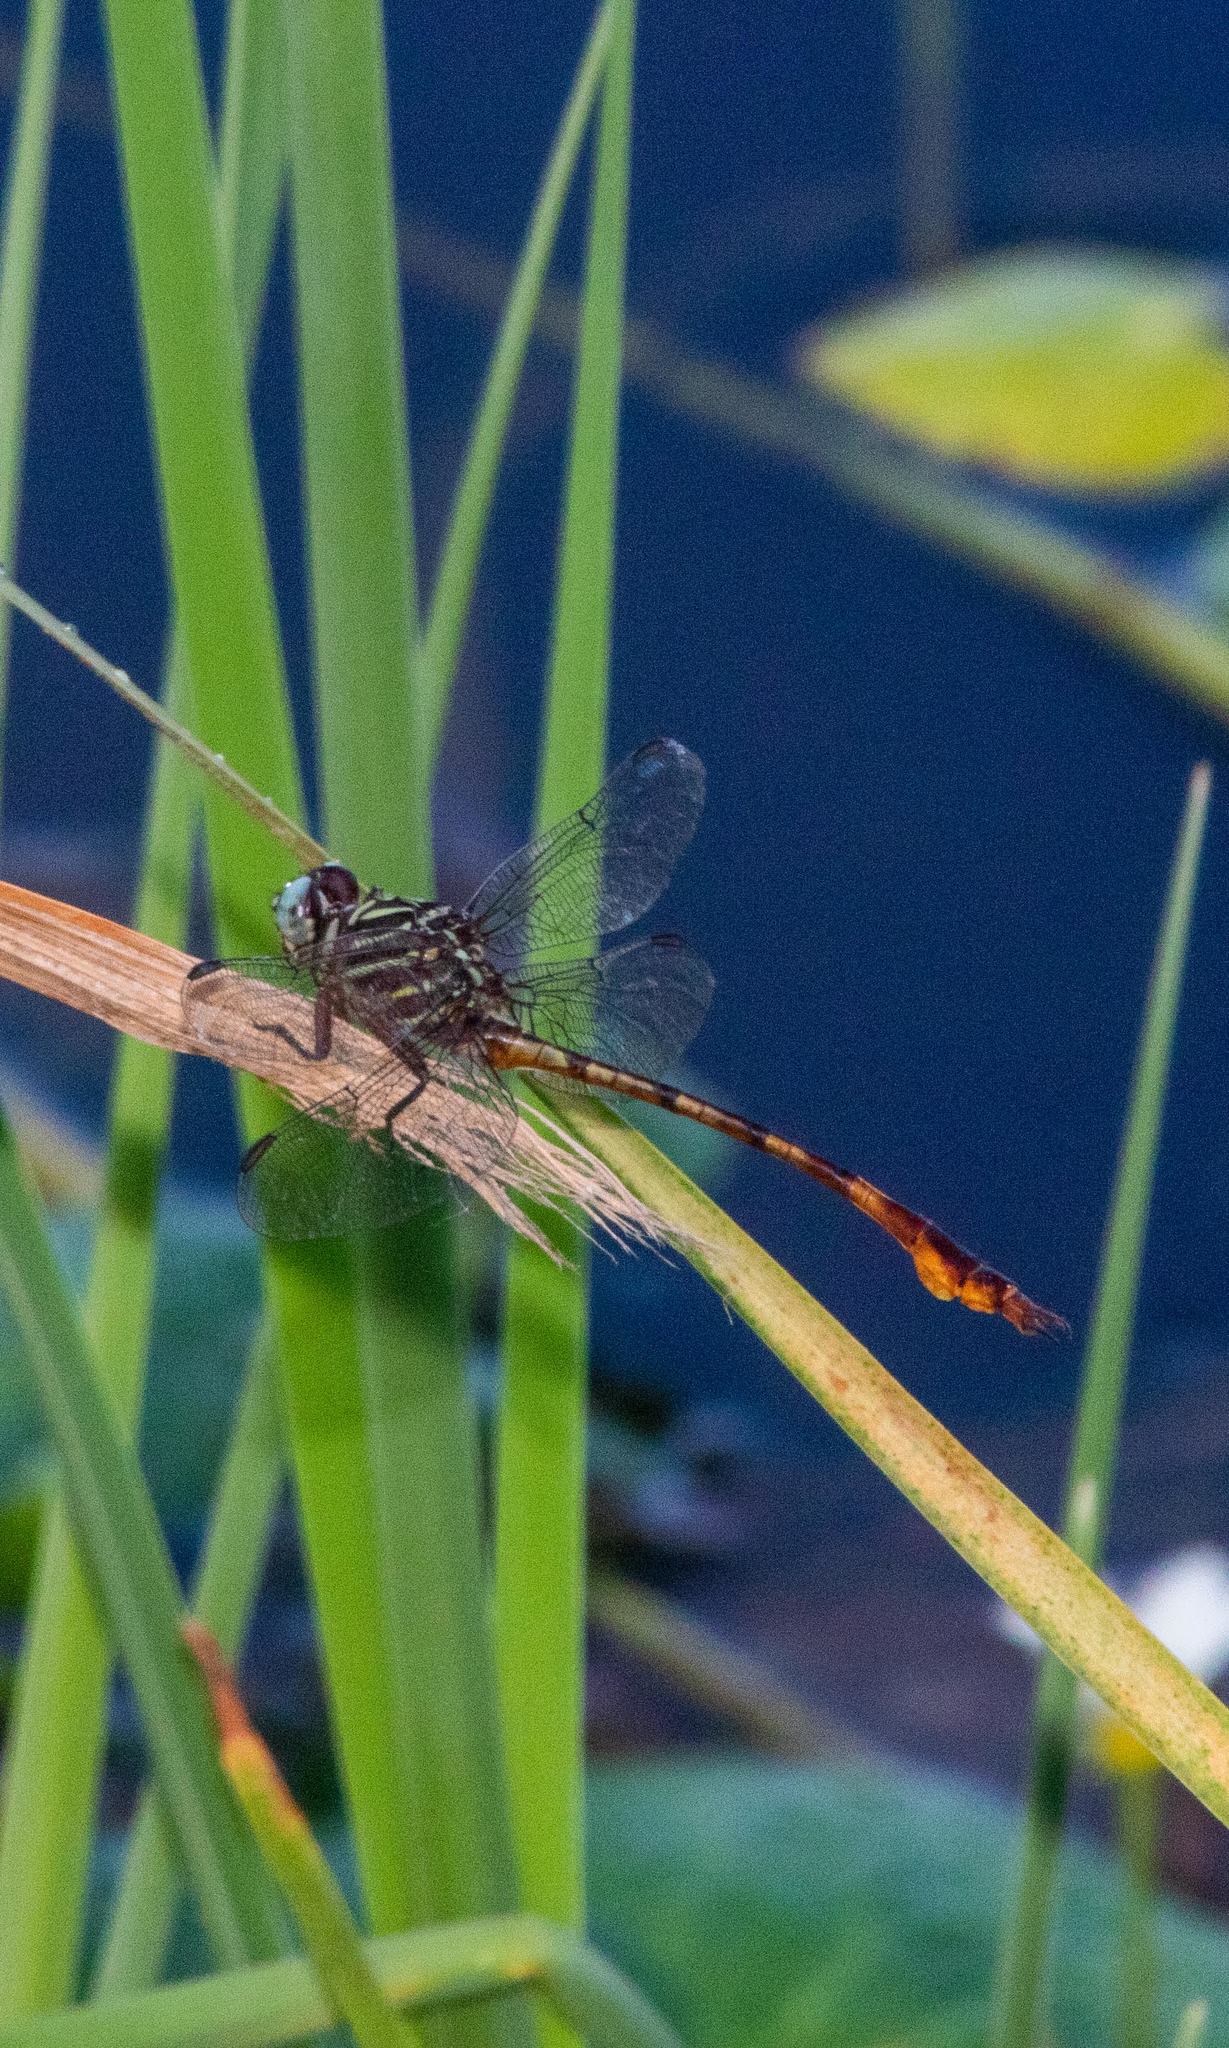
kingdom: Animalia
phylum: Arthropoda
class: Insecta
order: Odonata
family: Gomphidae
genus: Aphylla
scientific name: Aphylla protracta
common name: Narrow-striped forceptail
